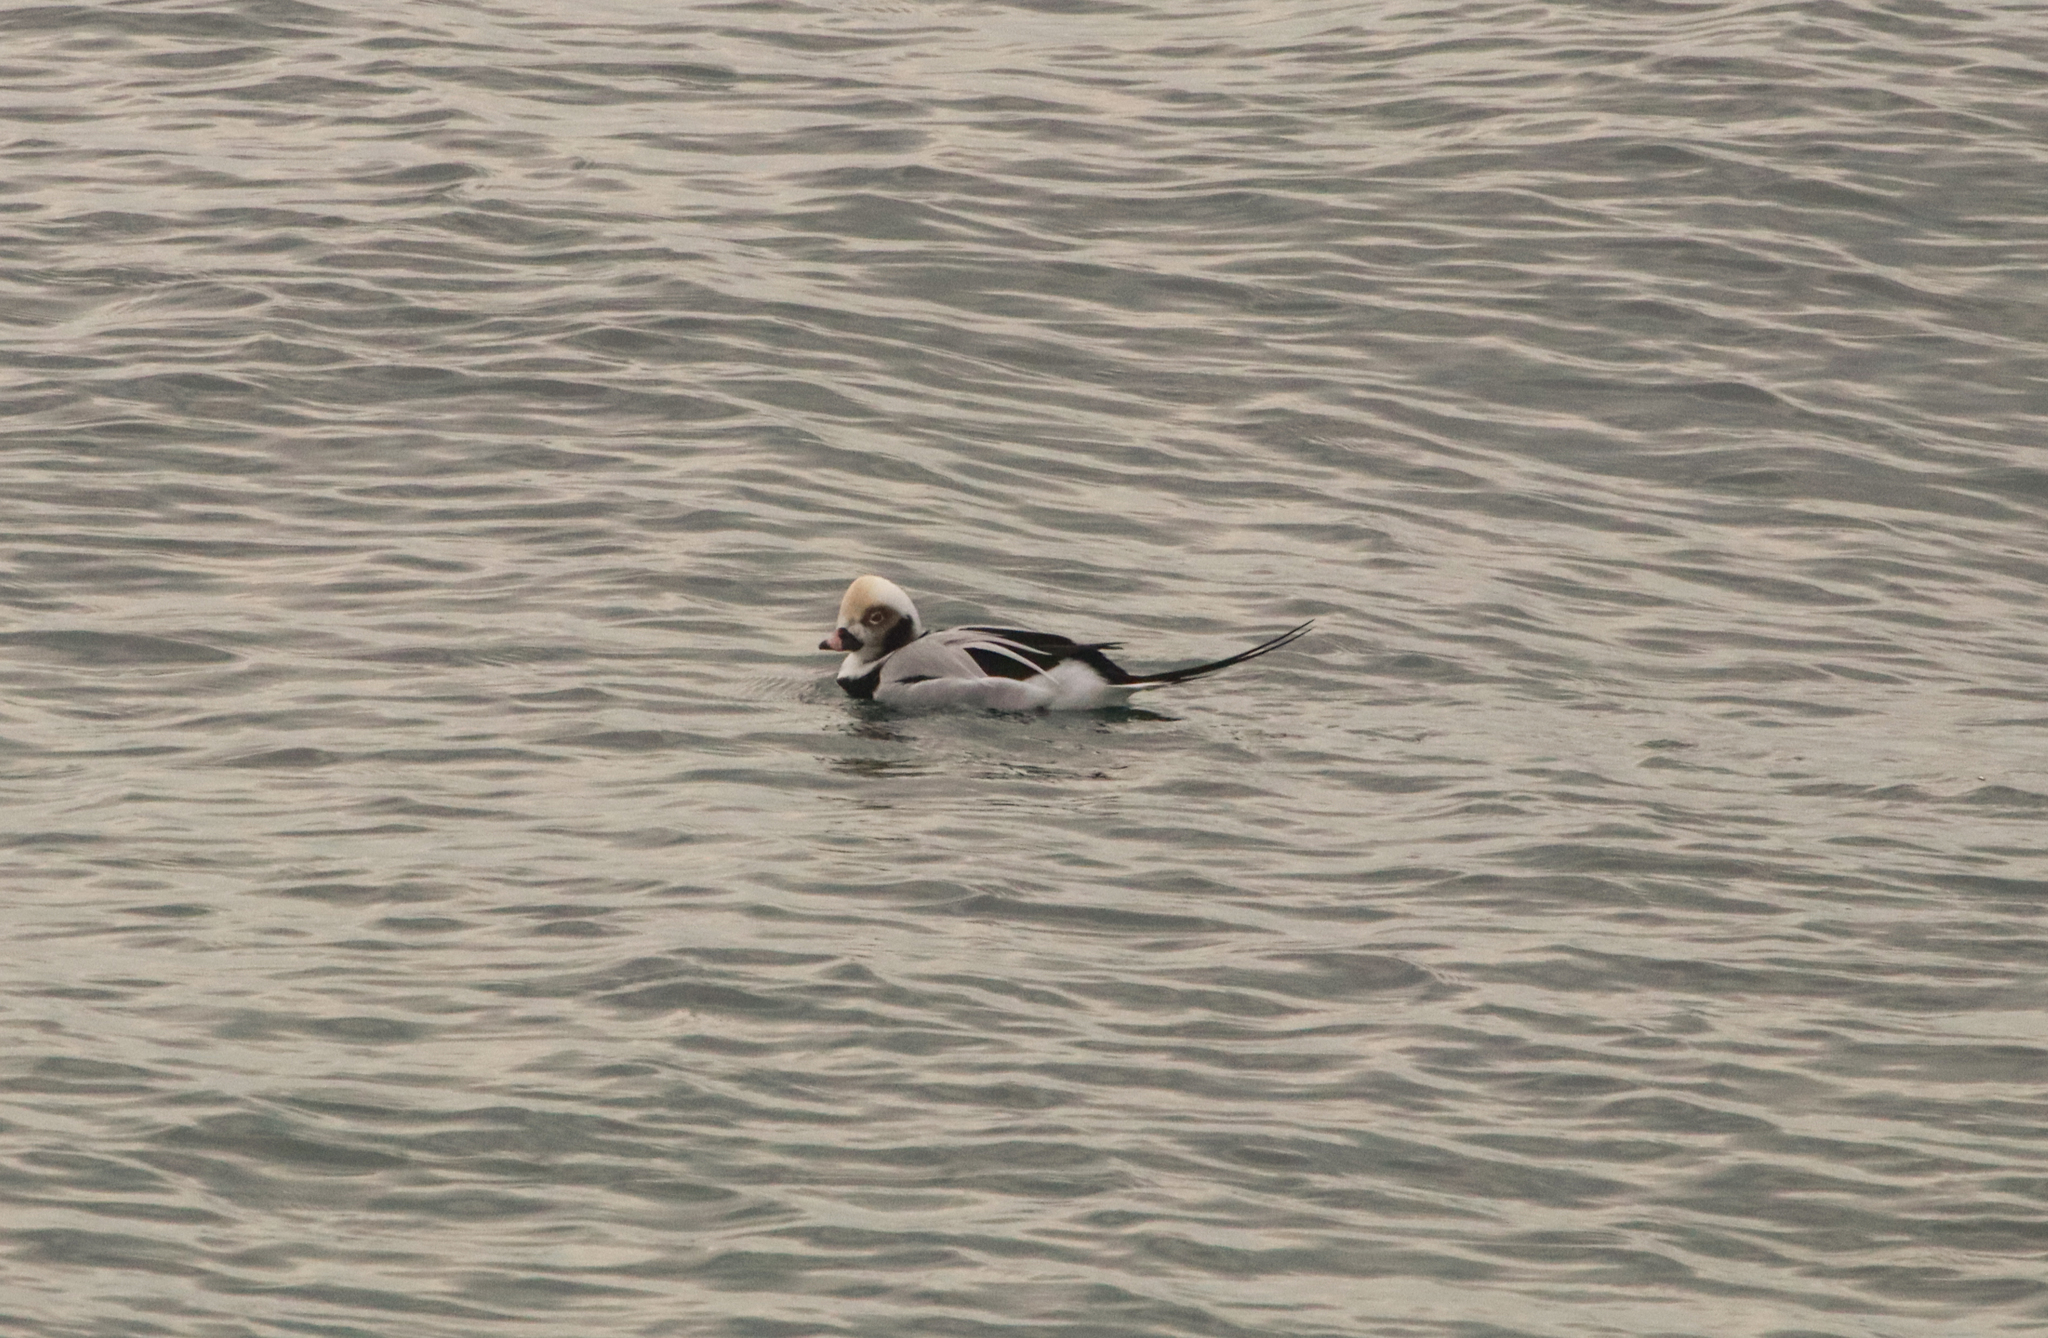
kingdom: Animalia
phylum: Chordata
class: Aves
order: Anseriformes
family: Anatidae
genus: Clangula
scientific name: Clangula hyemalis
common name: Long-tailed duck
